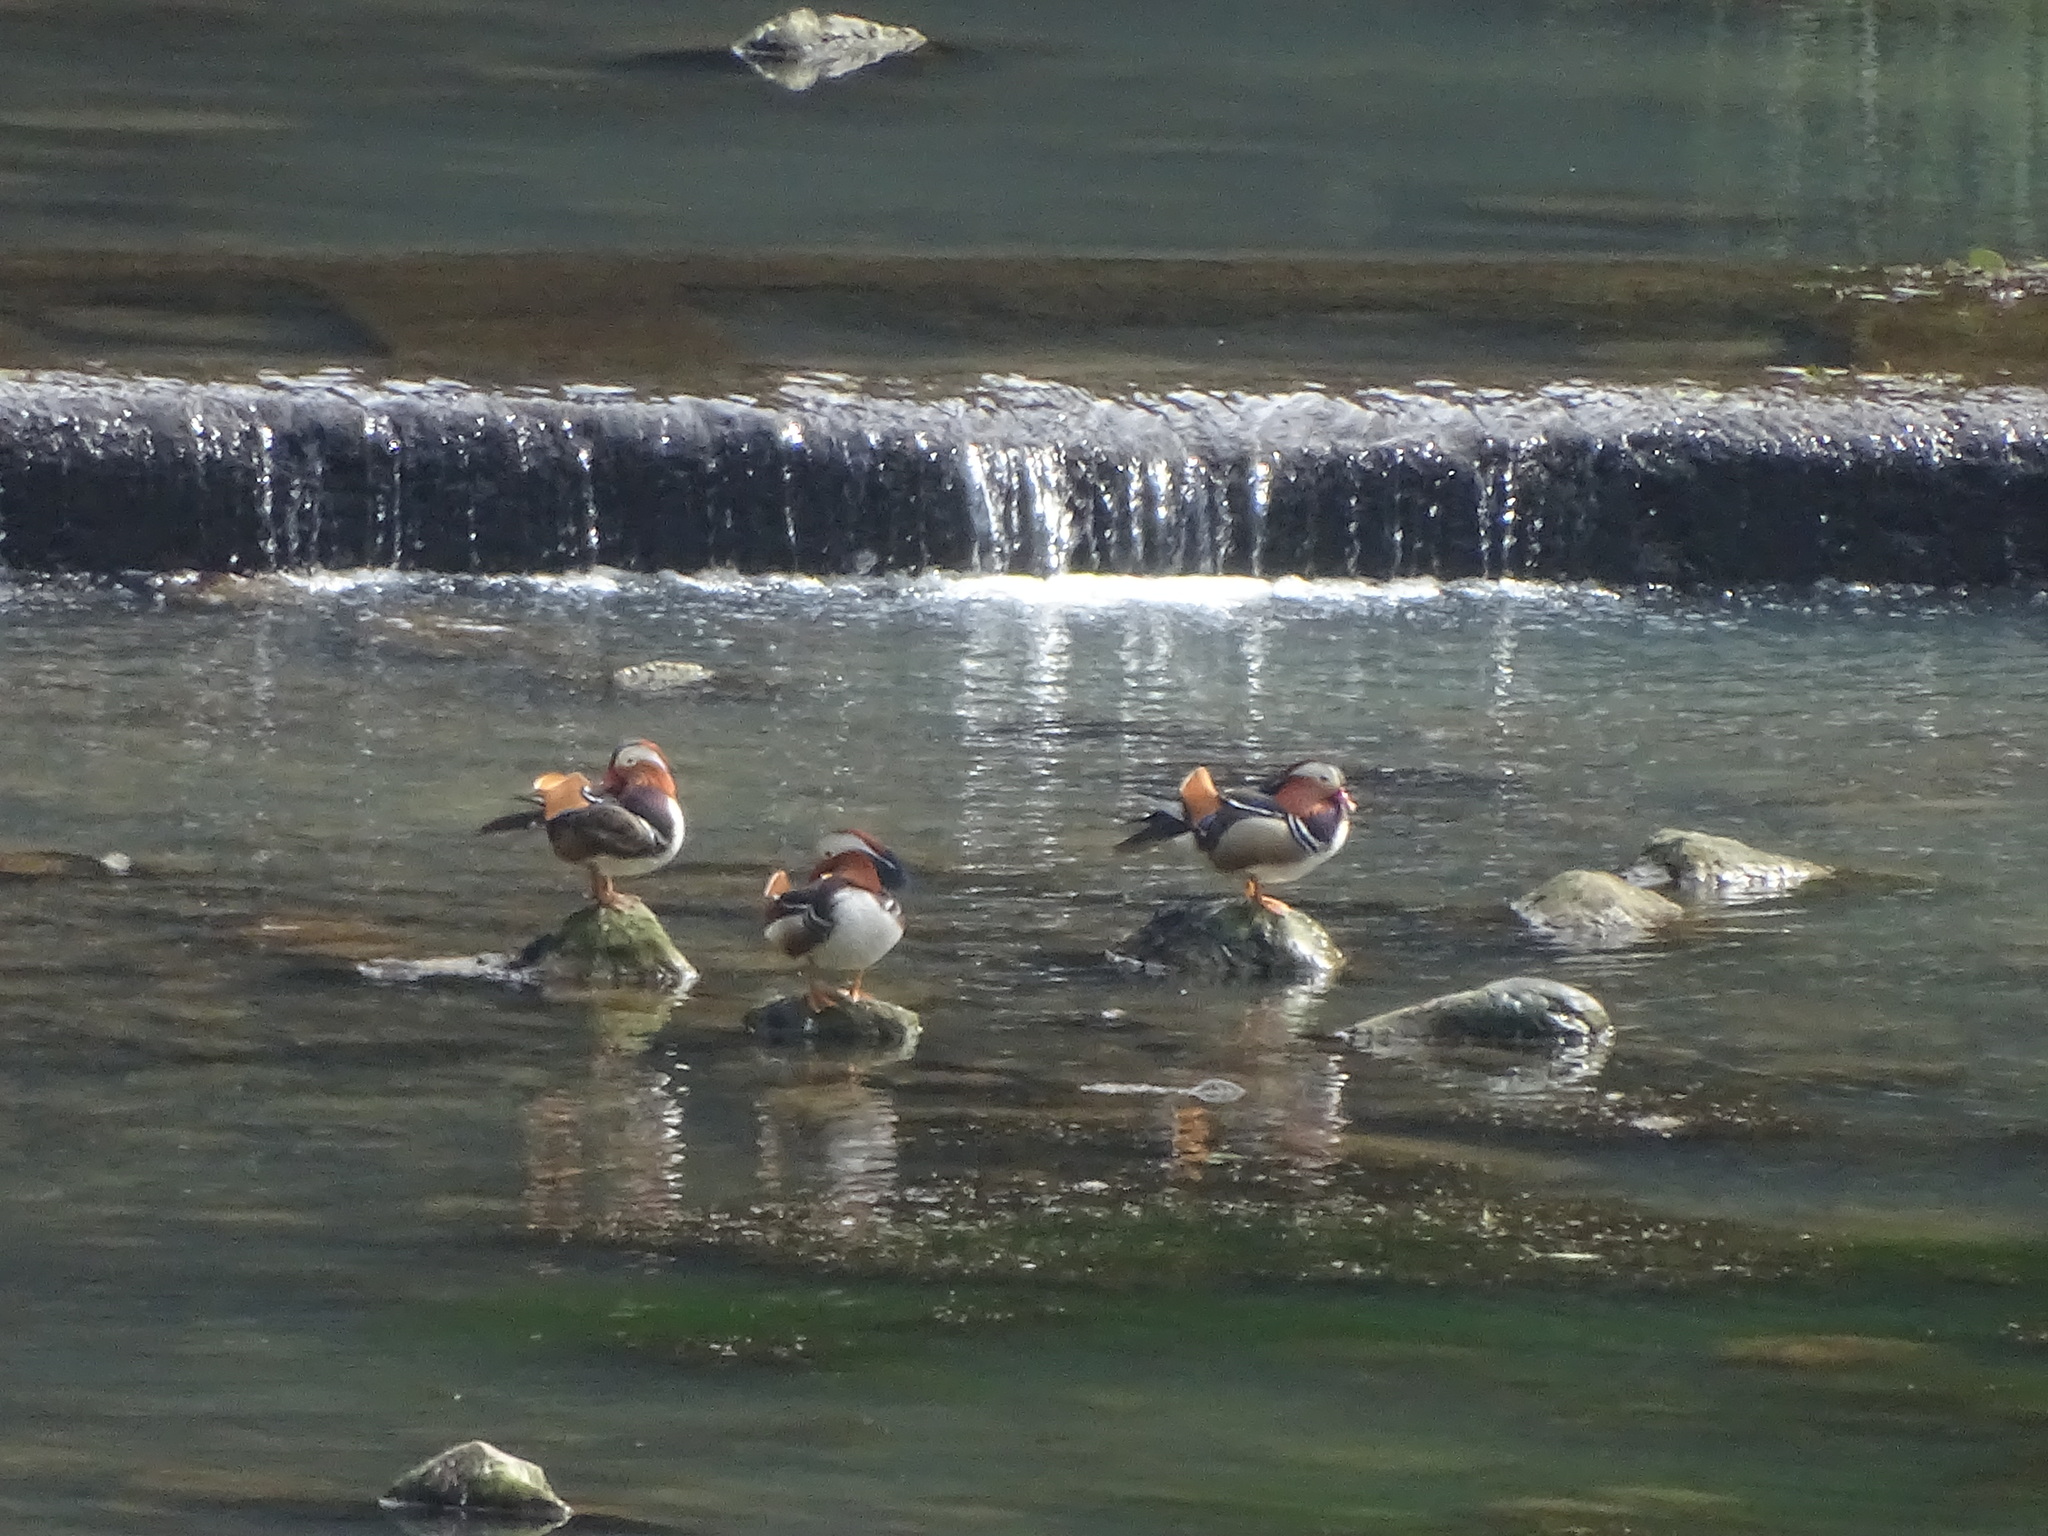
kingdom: Animalia
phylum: Chordata
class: Aves
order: Anseriformes
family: Anatidae
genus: Aix
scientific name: Aix galericulata
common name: Mandarin duck
